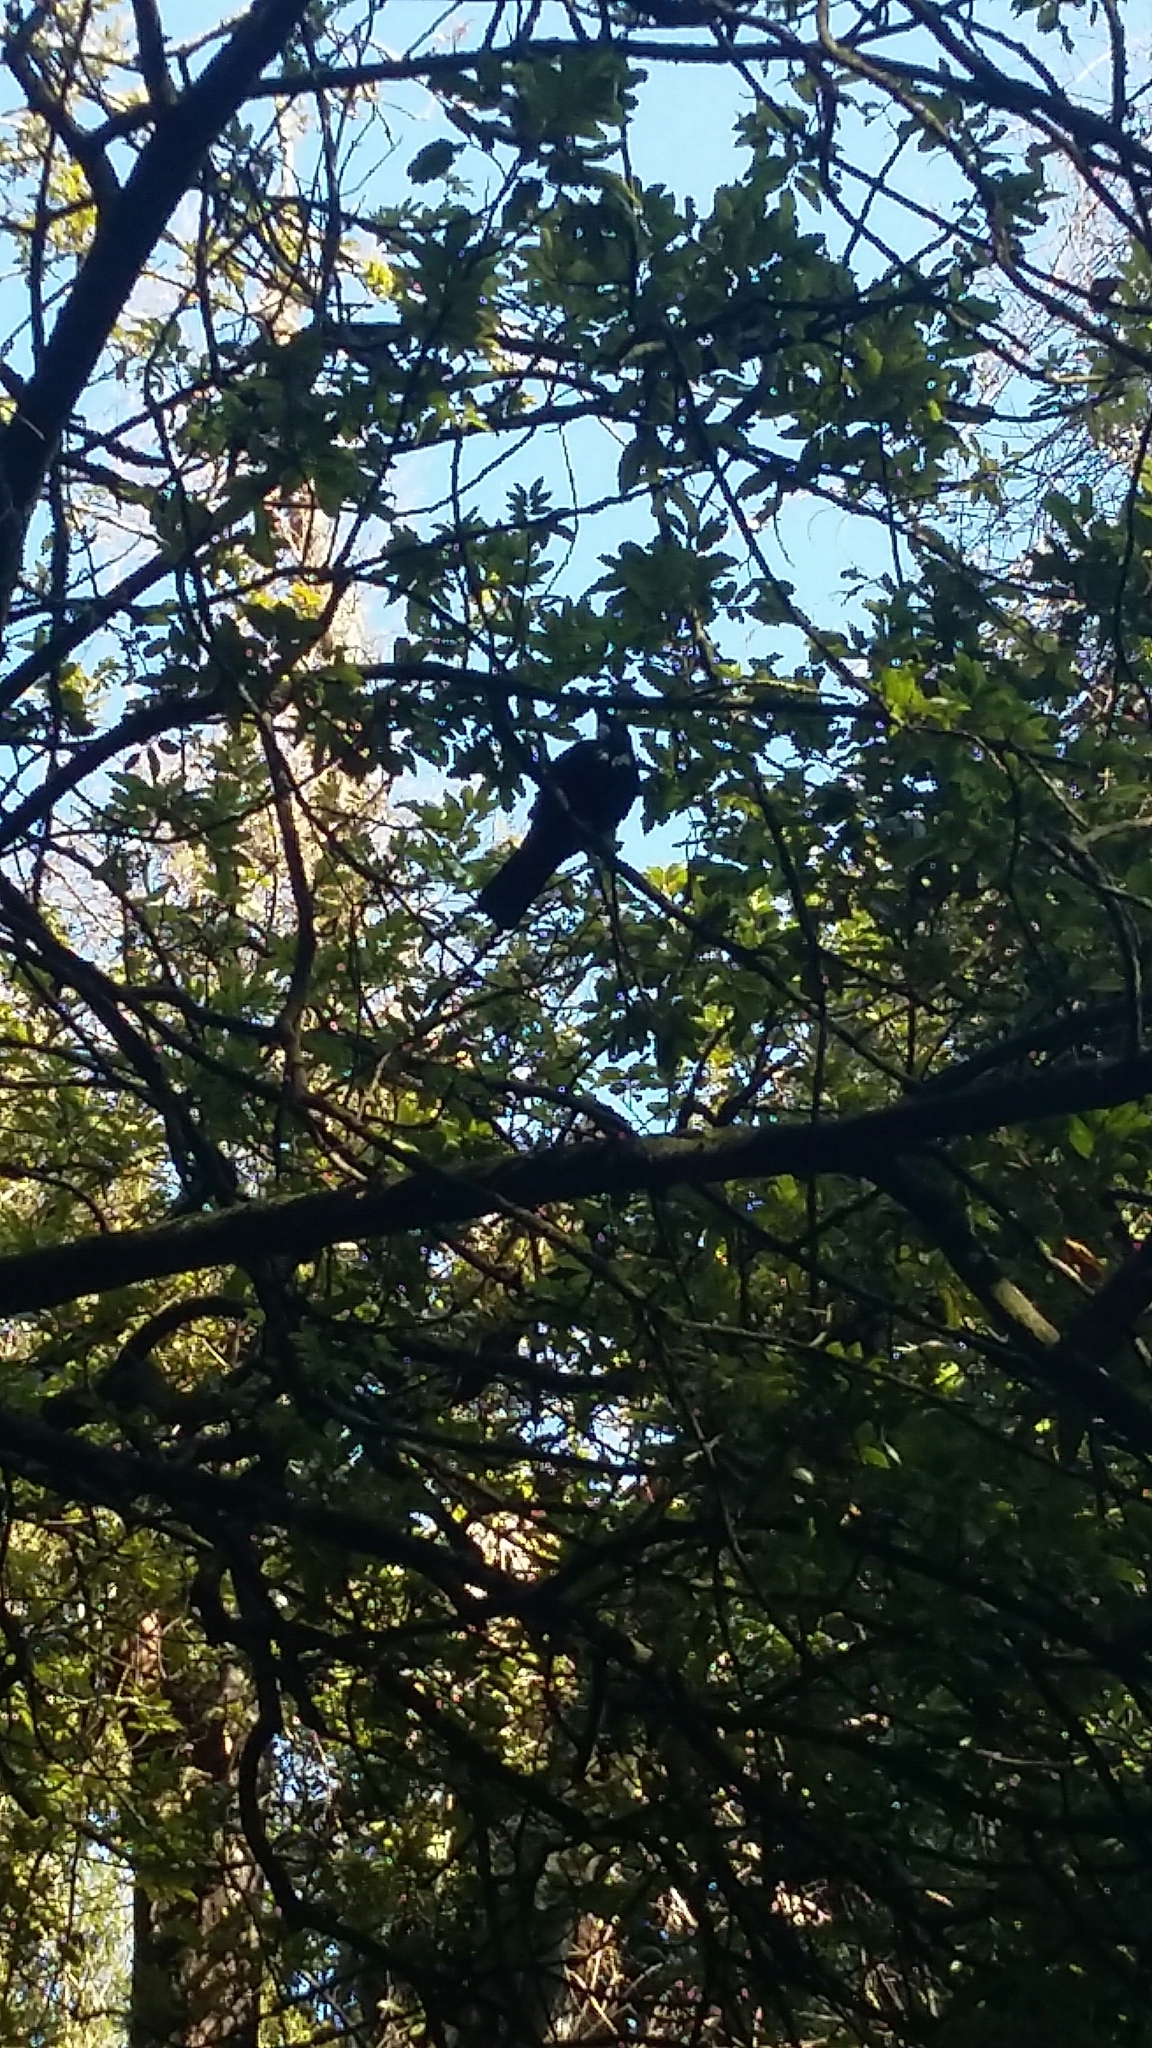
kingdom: Animalia
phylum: Chordata
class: Aves
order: Passeriformes
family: Meliphagidae
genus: Prosthemadera
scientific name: Prosthemadera novaeseelandiae
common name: Tui
